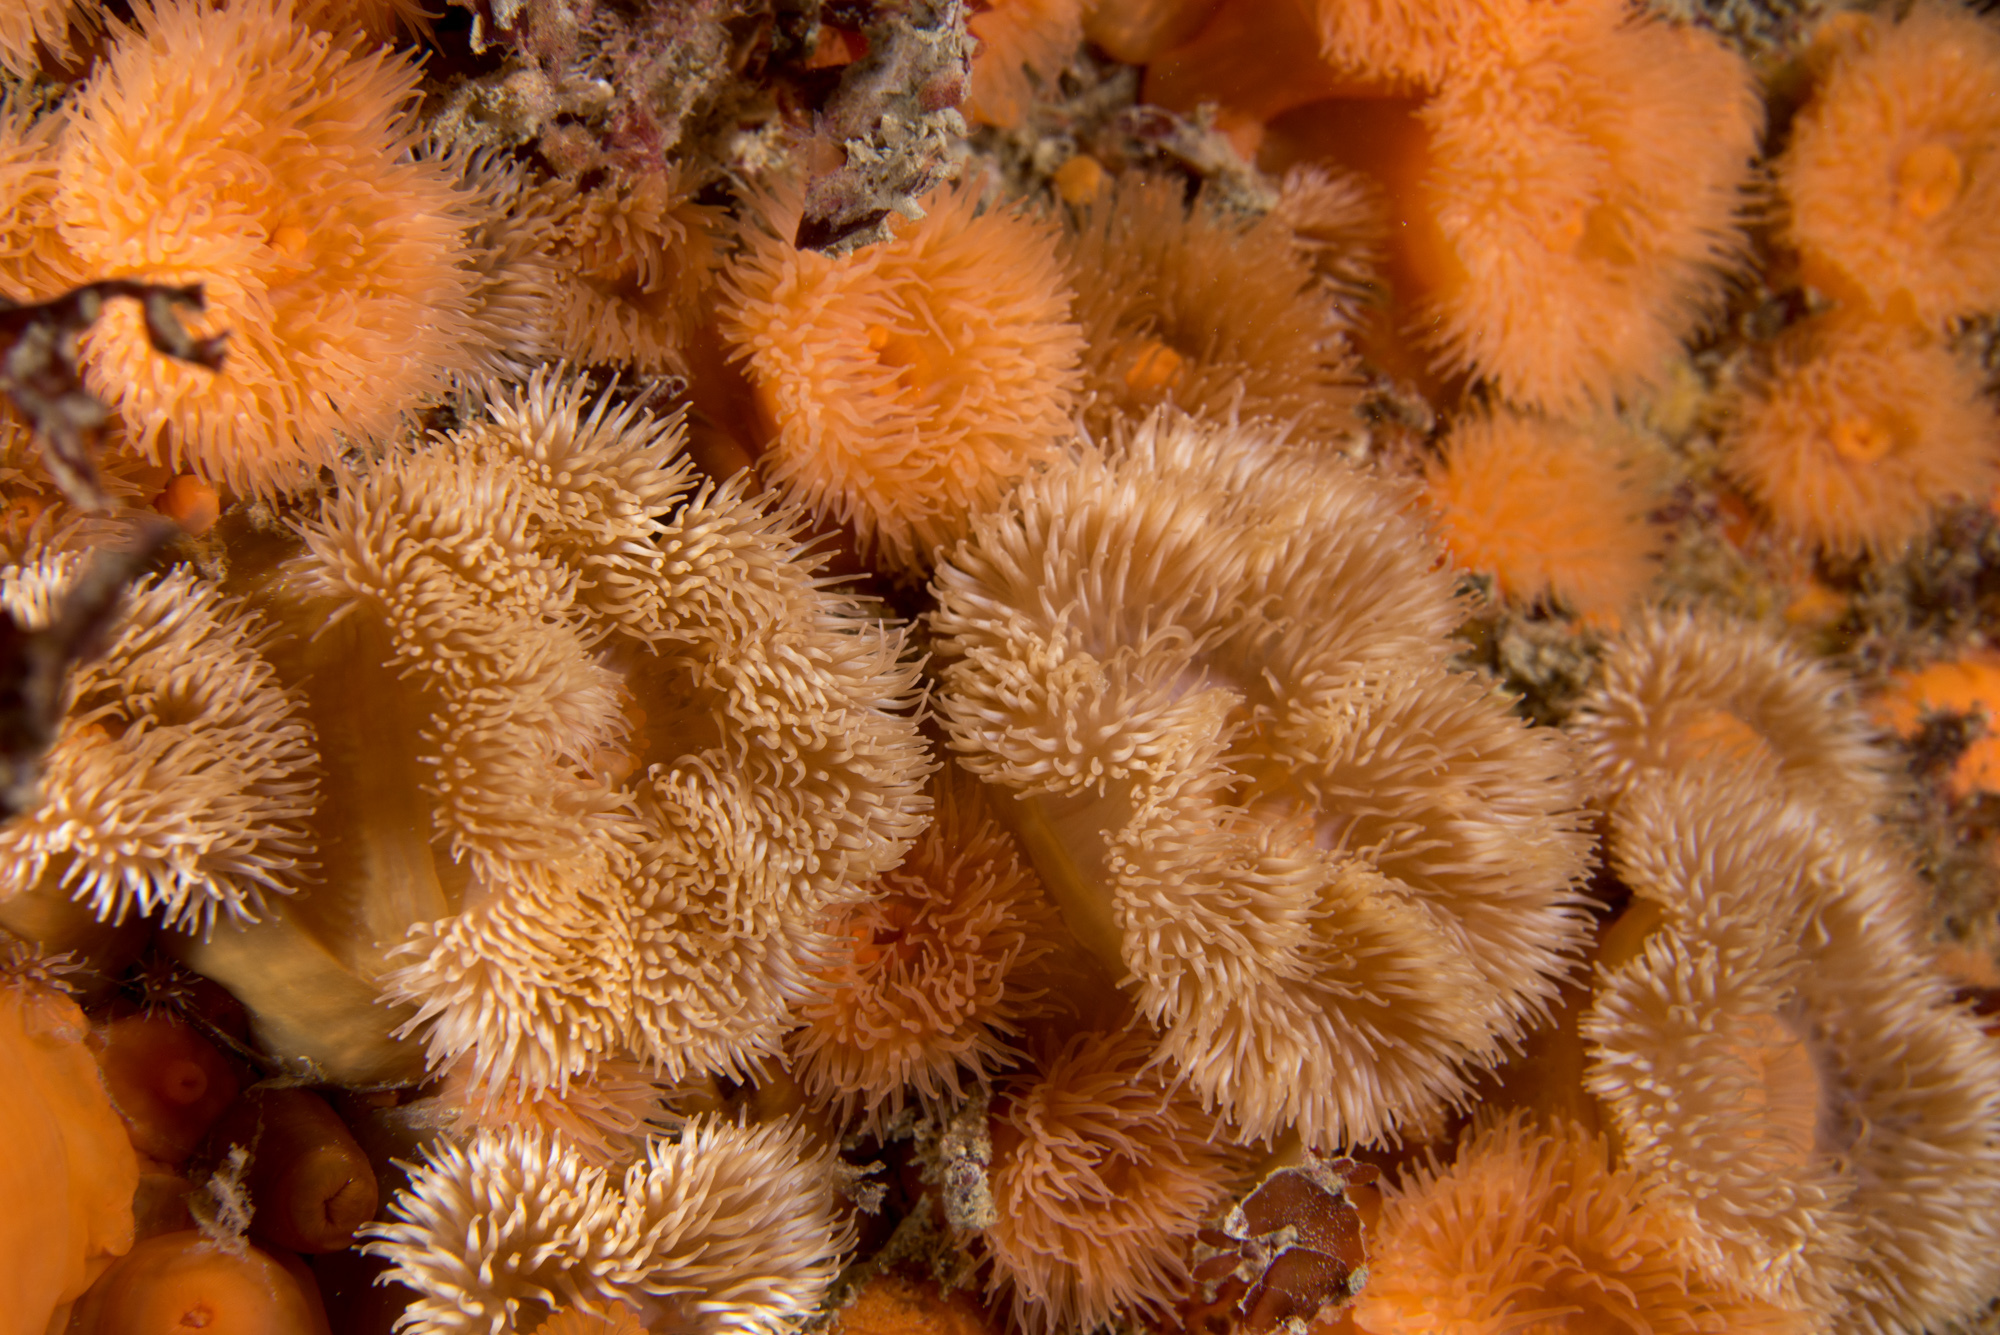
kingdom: Animalia
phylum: Cnidaria
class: Anthozoa
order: Actiniaria
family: Metridiidae
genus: Metridium
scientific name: Metridium senile
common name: Clonal plumose anemone
